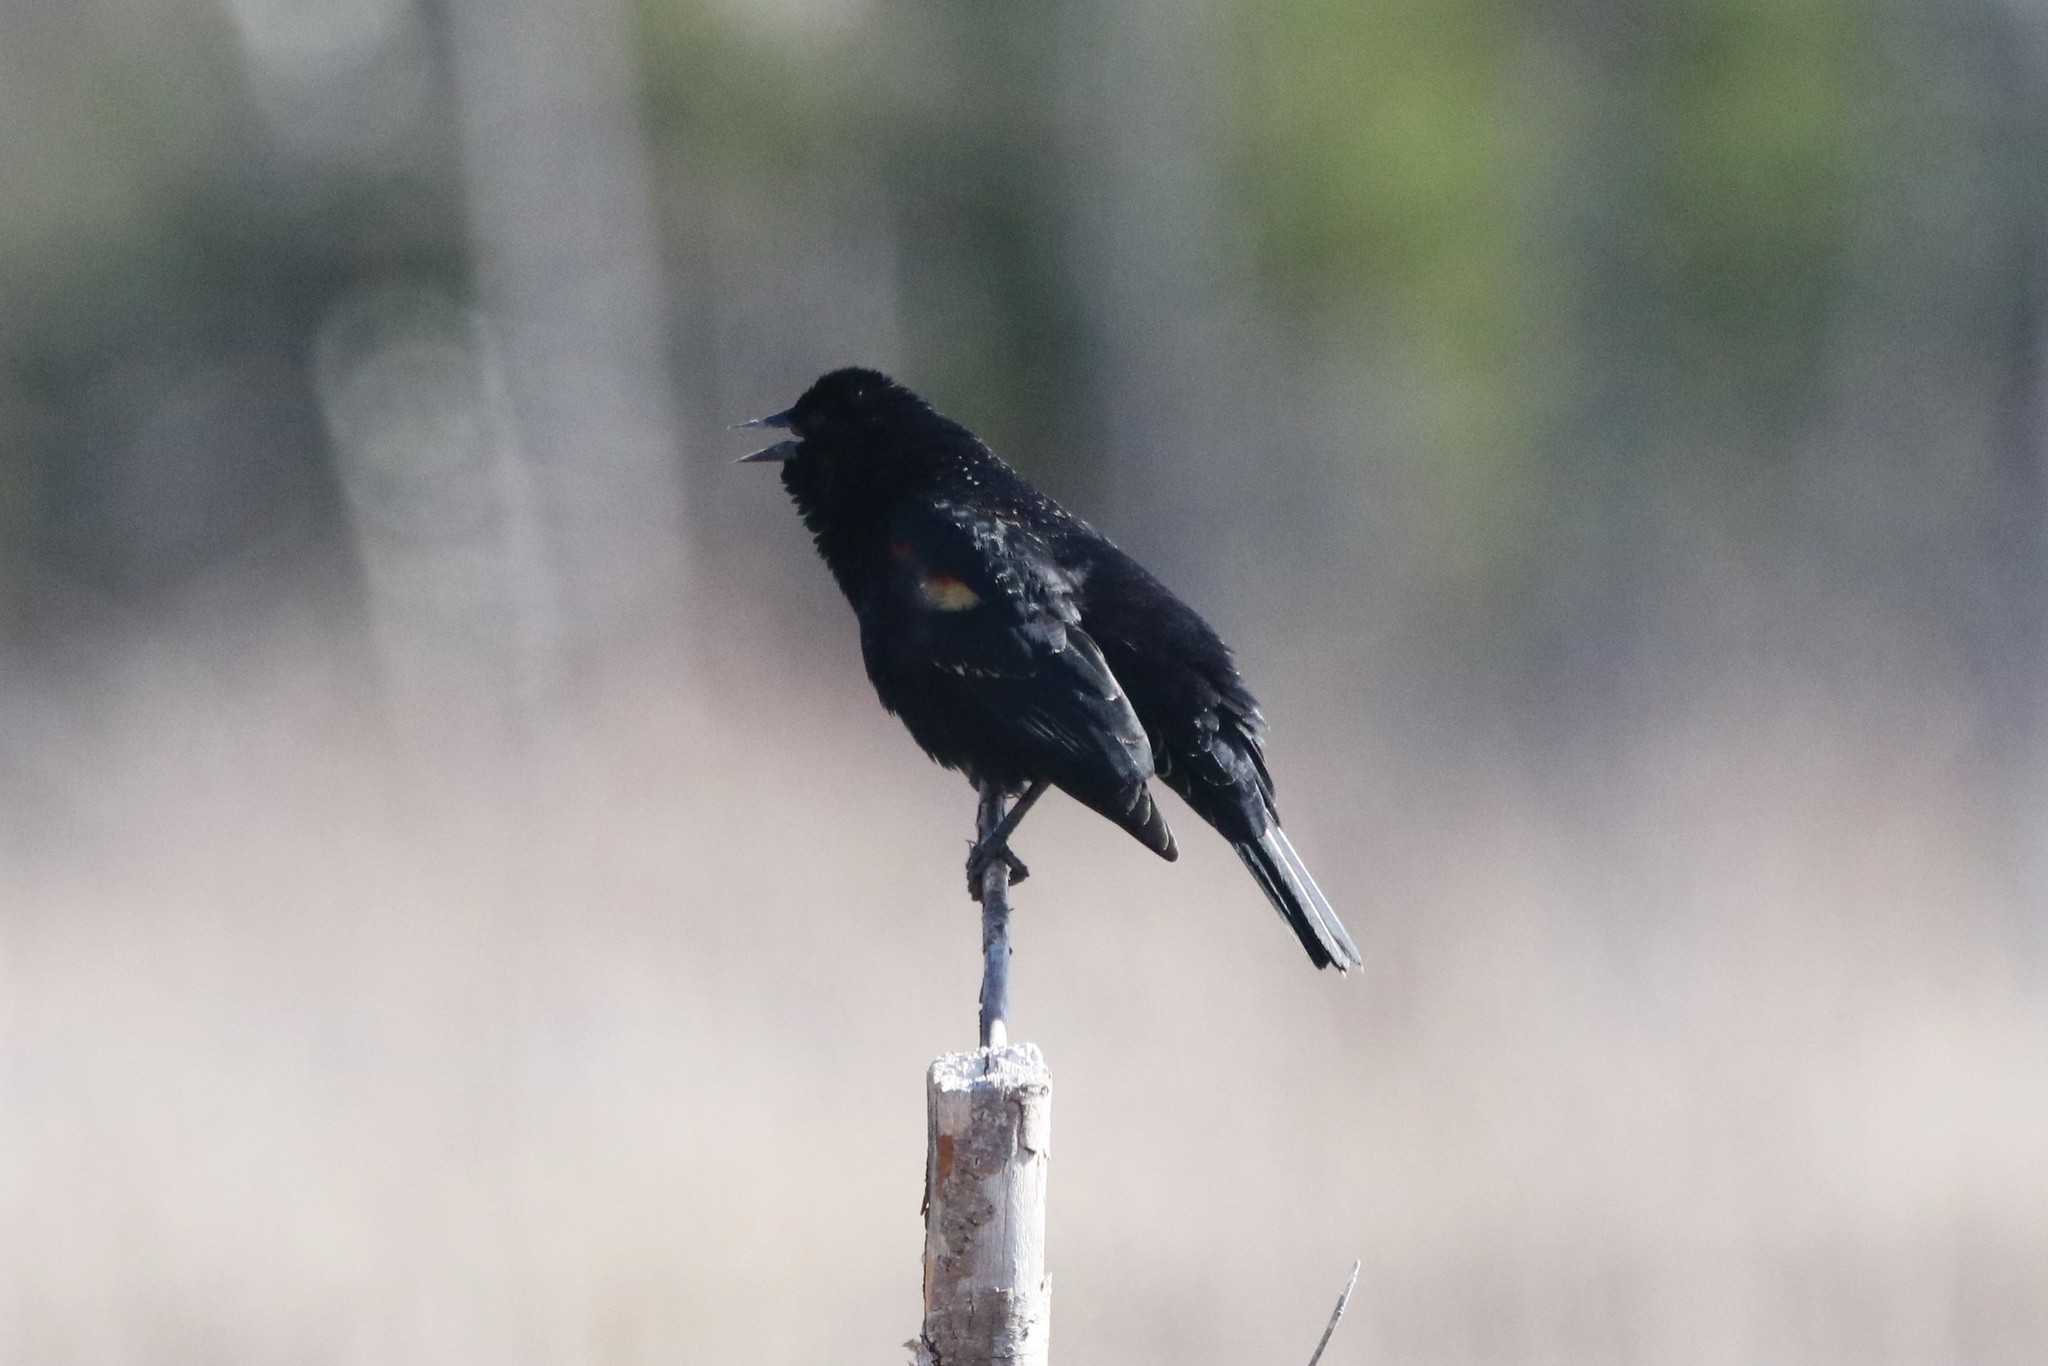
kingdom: Animalia
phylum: Chordata
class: Aves
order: Passeriformes
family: Icteridae
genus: Agelaius
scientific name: Agelaius phoeniceus
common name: Red-winged blackbird
